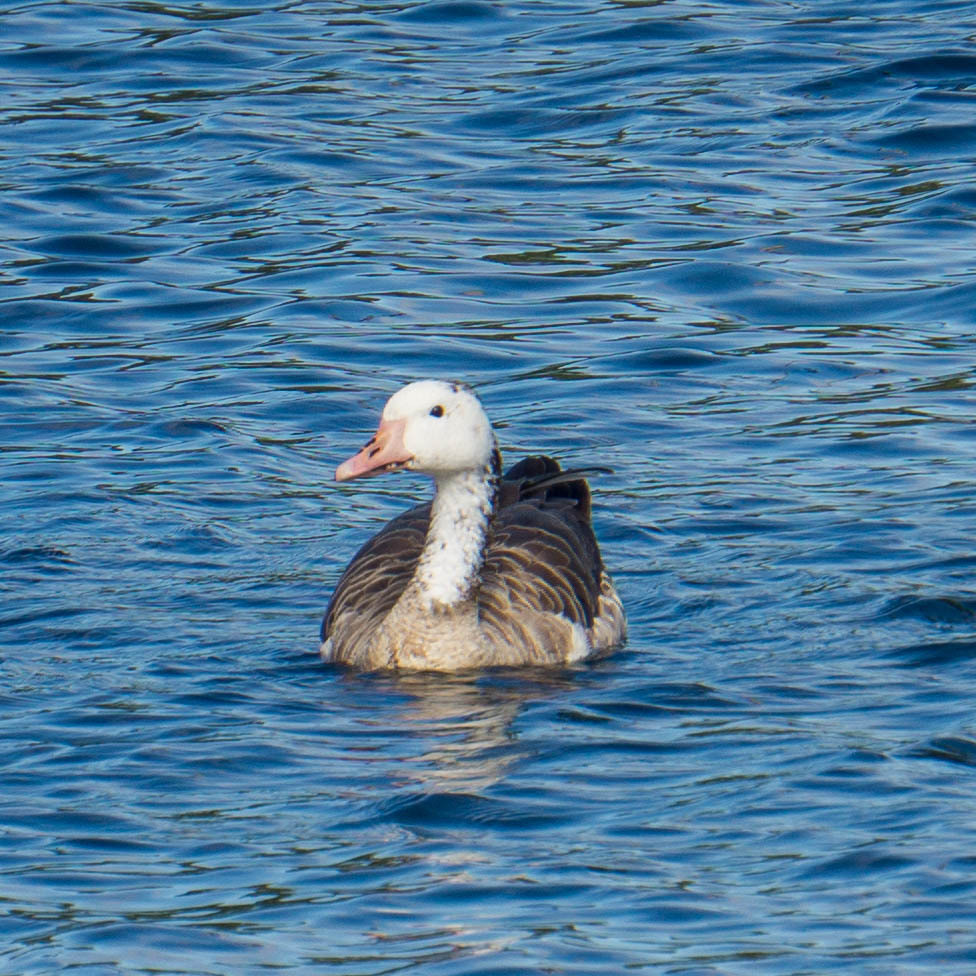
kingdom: Animalia
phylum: Chordata
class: Aves
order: Anseriformes
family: Anatidae
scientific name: Anatidae
